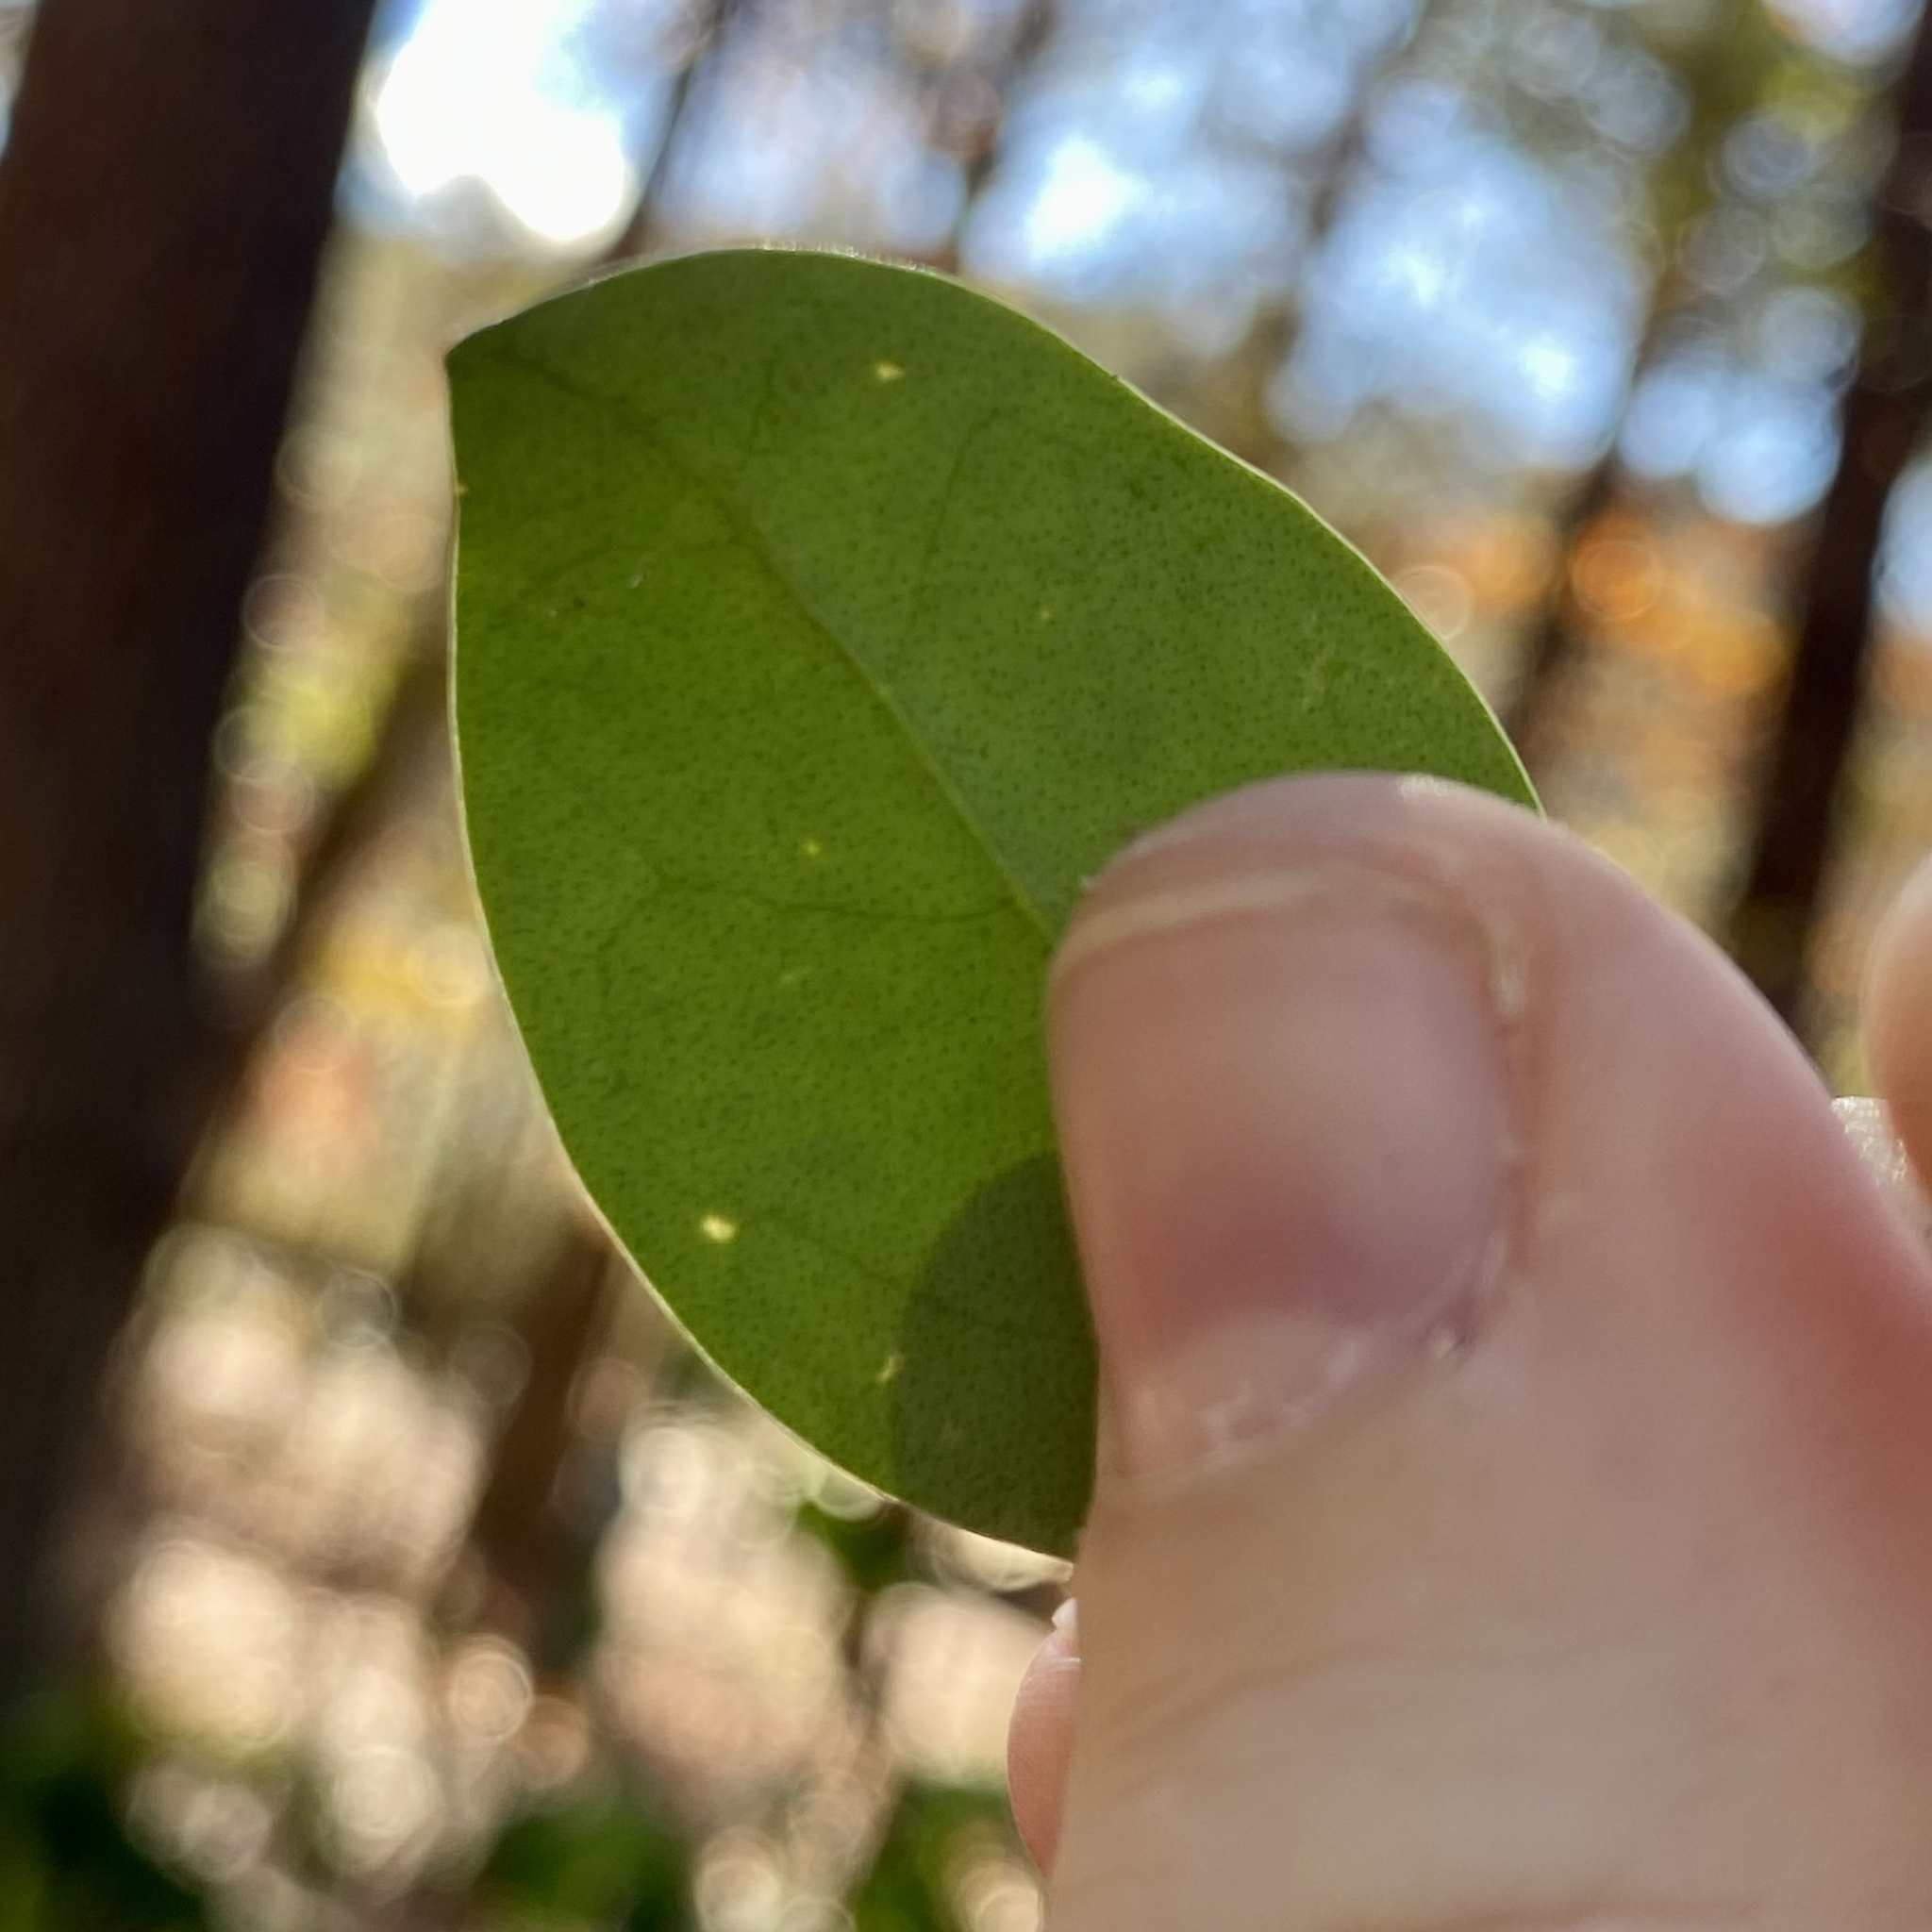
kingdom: Plantae
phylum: Tracheophyta
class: Magnoliopsida
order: Lamiales
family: Oleaceae
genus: Ligustrum
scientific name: Ligustrum lucidum
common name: Glossy privet
